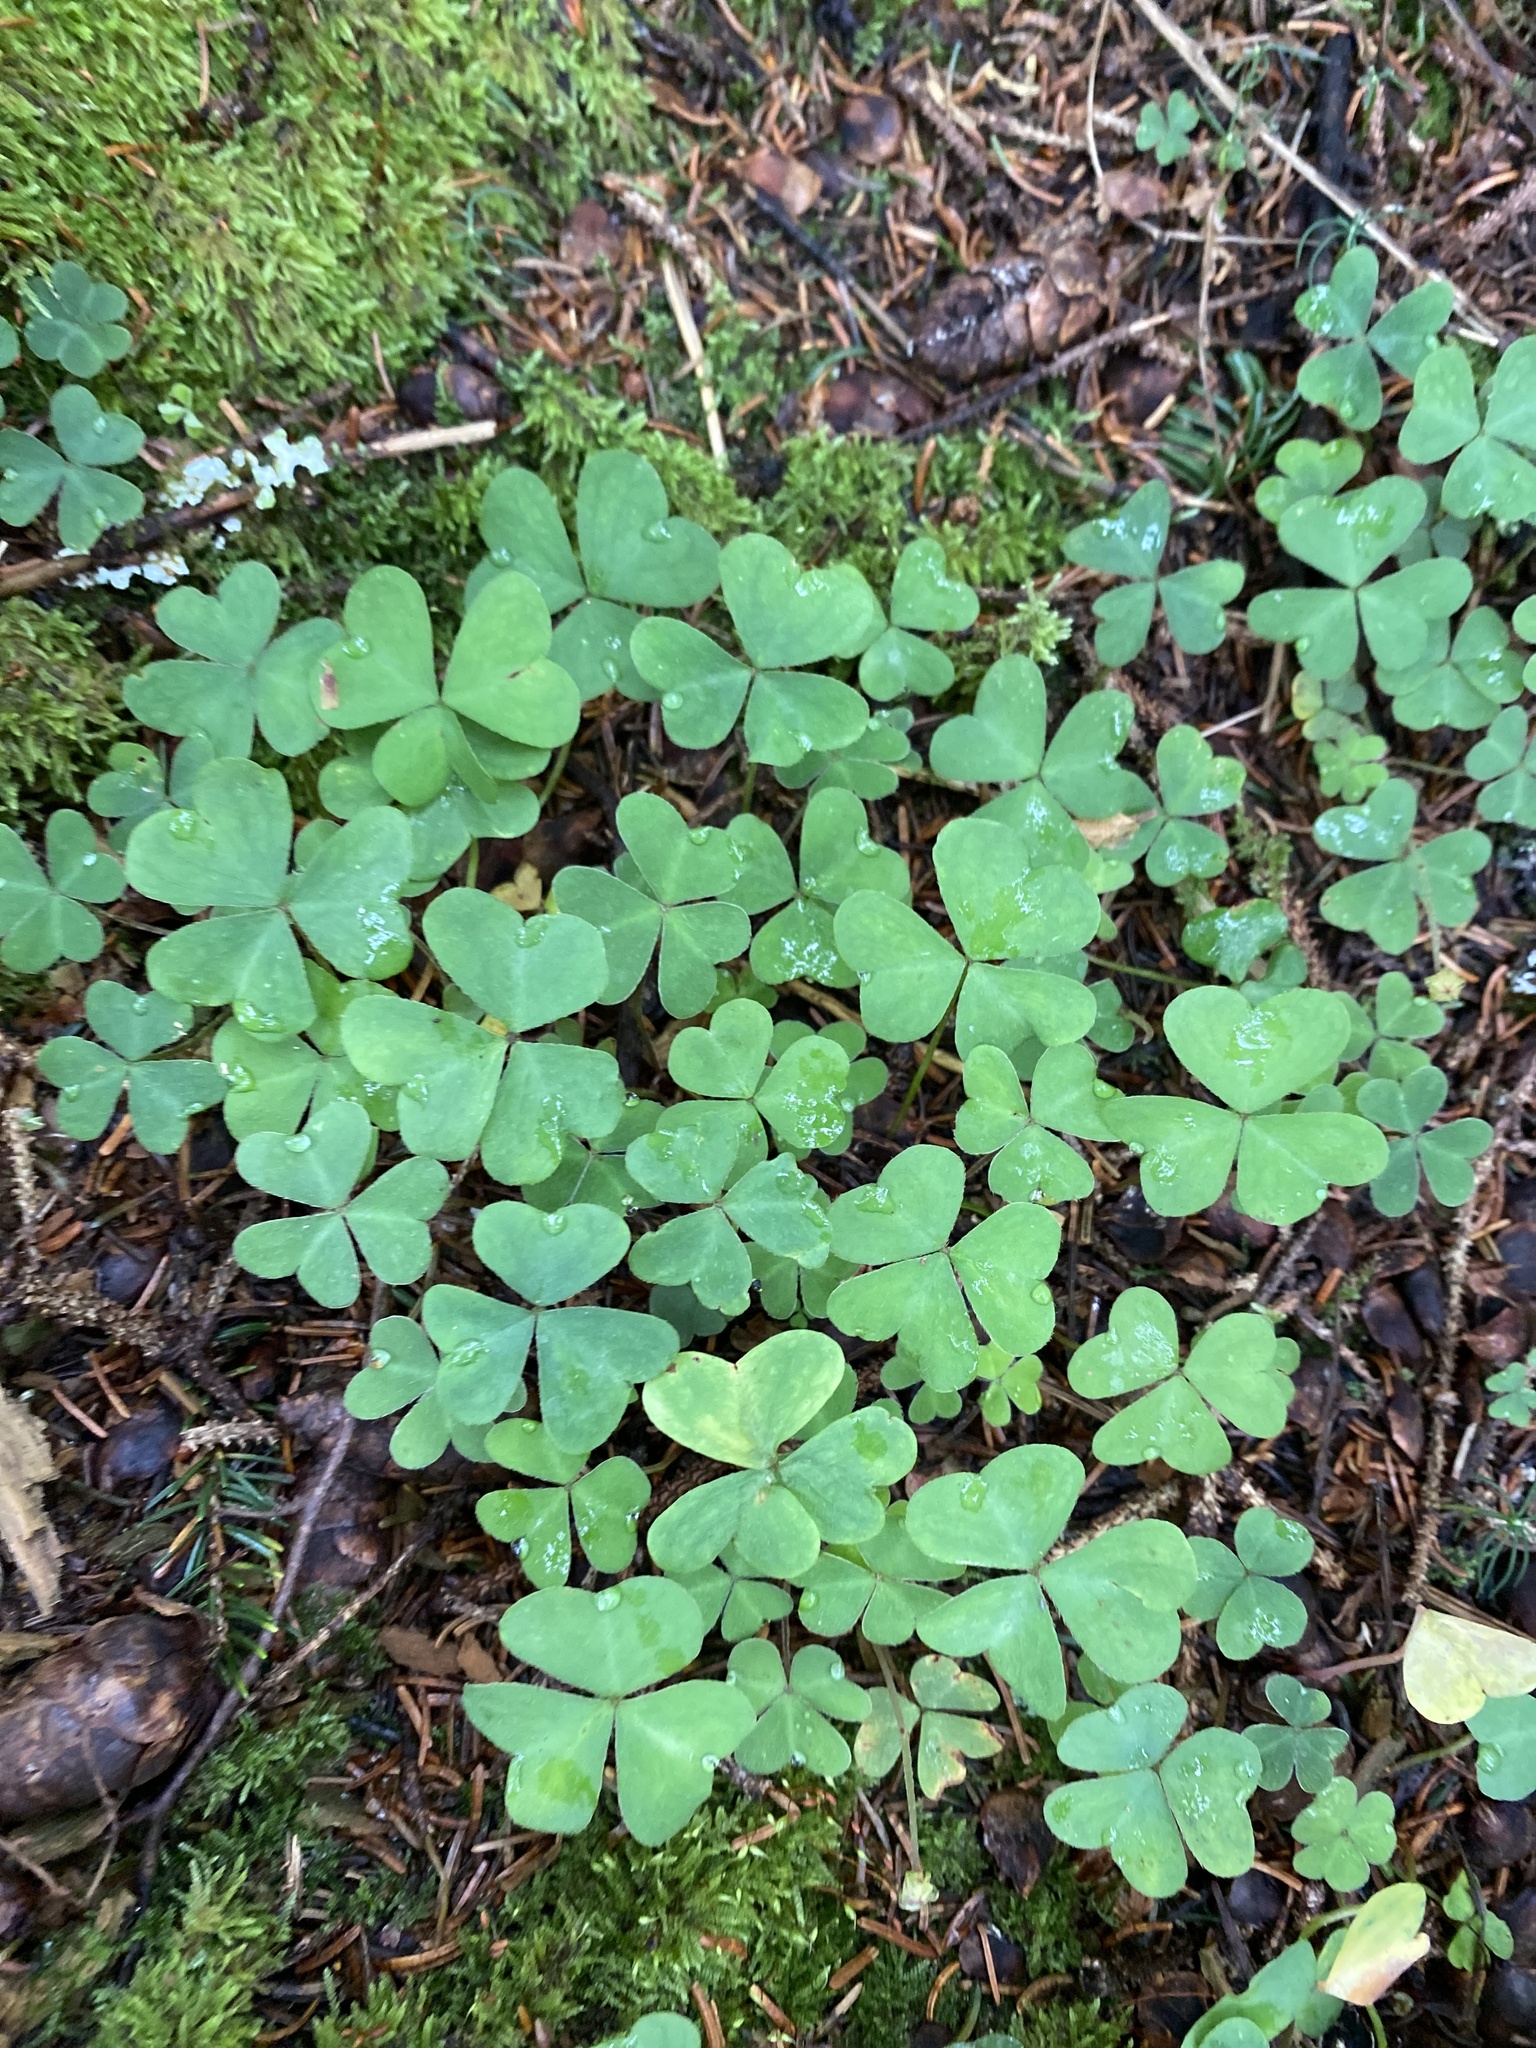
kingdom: Plantae
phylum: Tracheophyta
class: Magnoliopsida
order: Oxalidales
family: Oxalidaceae
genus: Oxalis
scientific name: Oxalis montana
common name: American wood-sorrel
